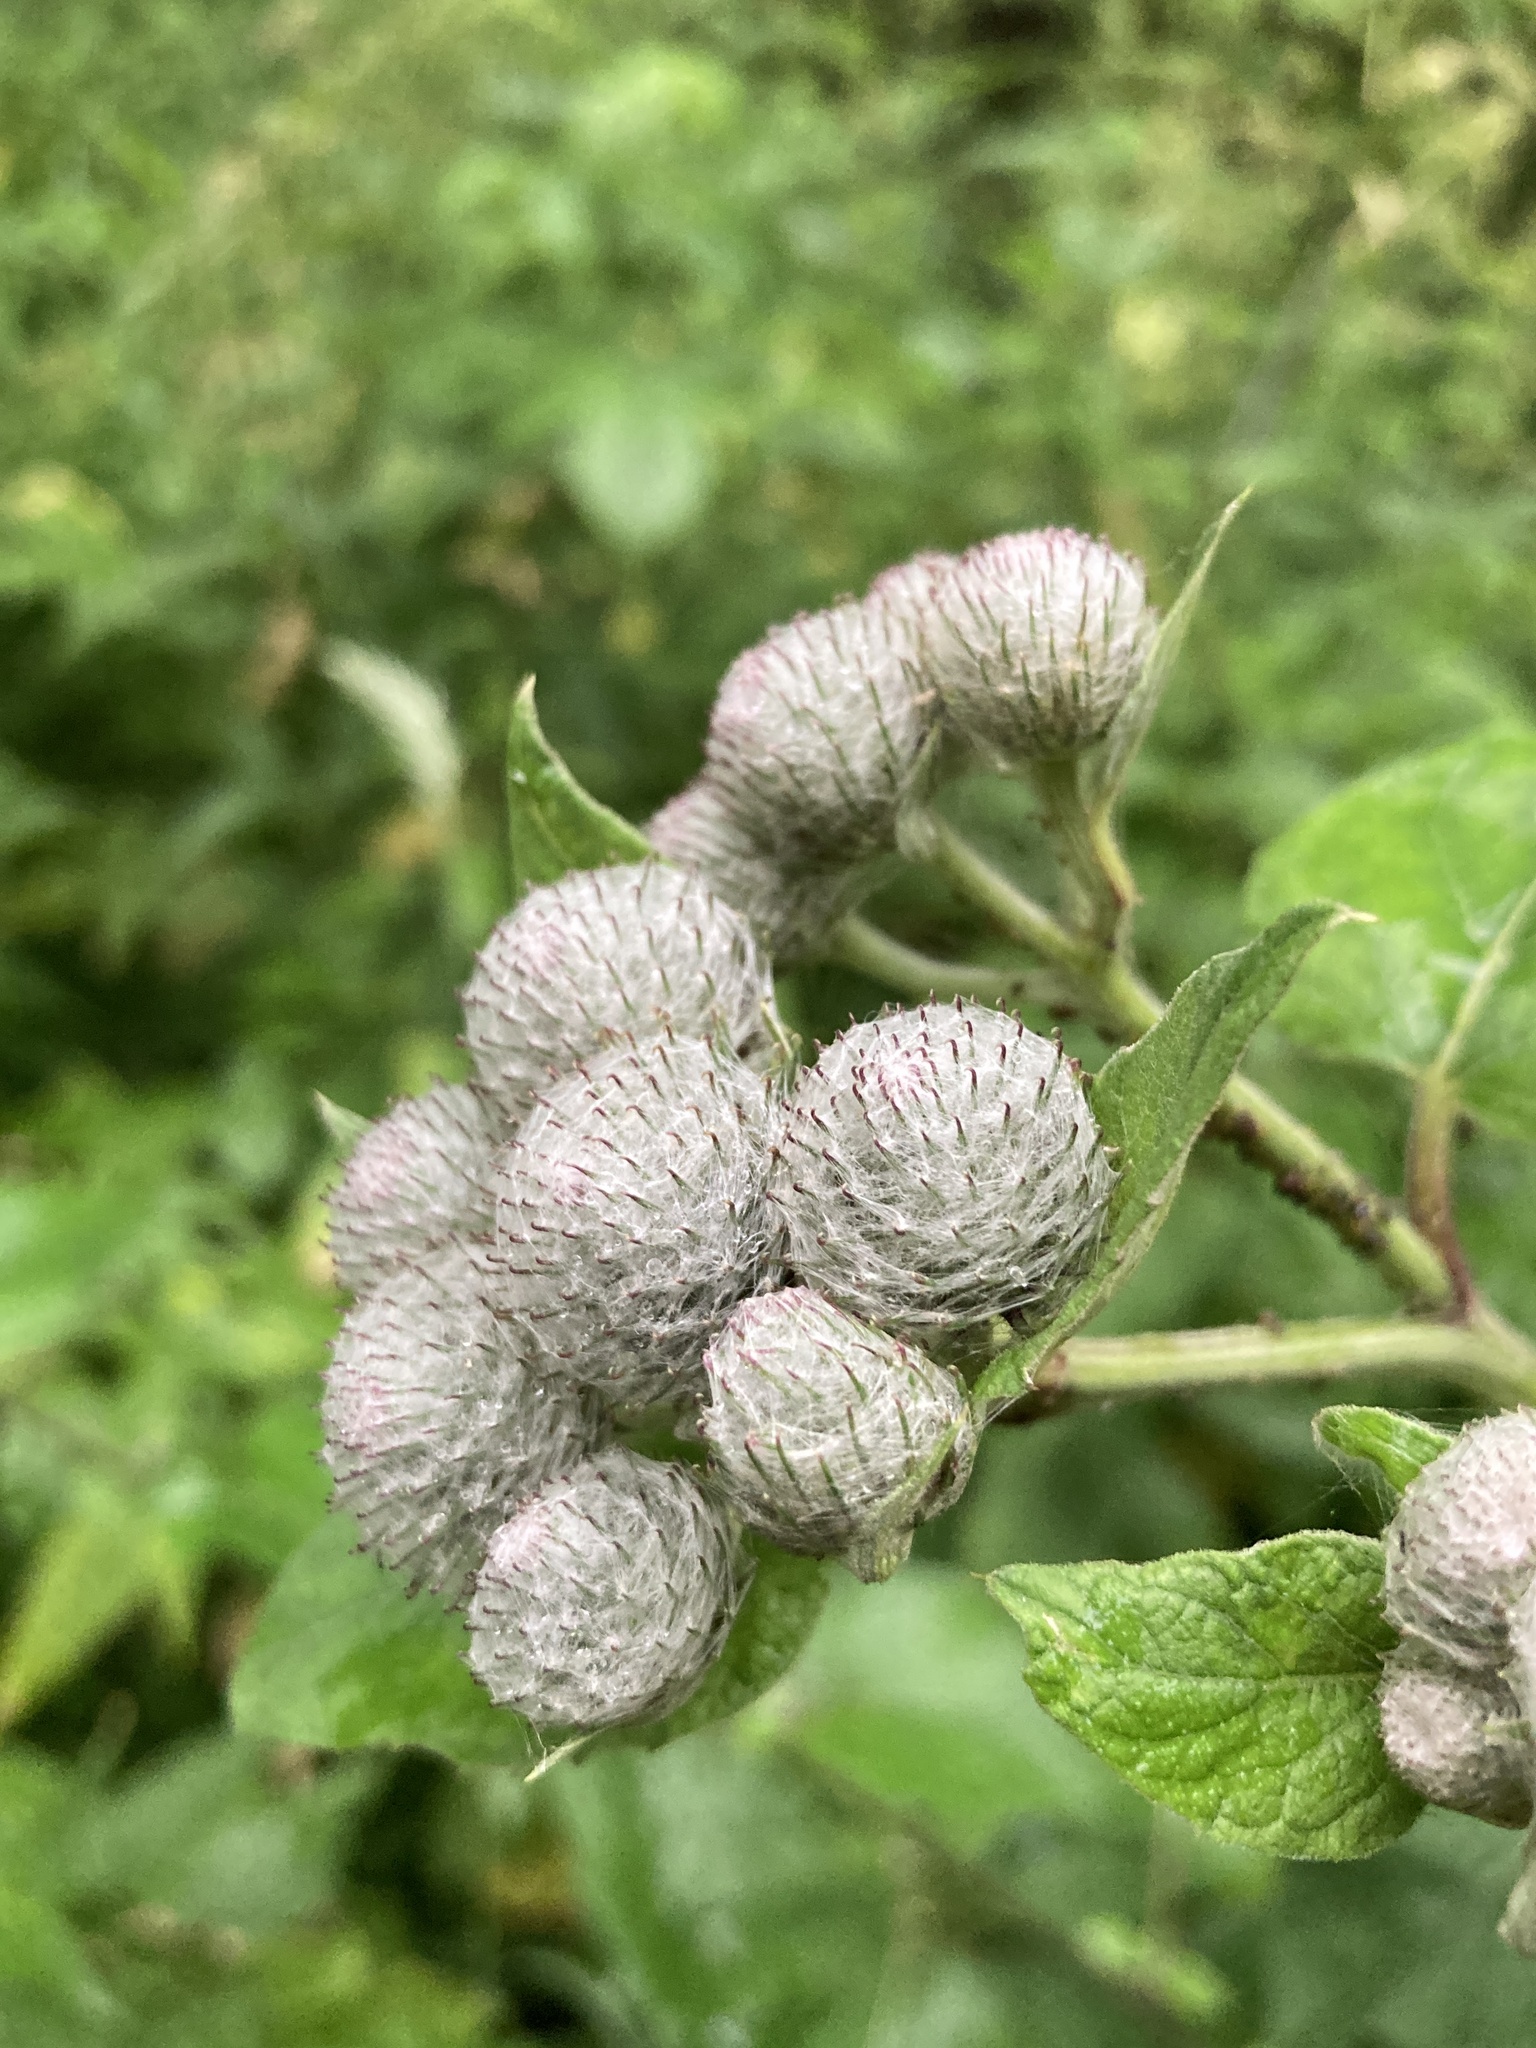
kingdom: Plantae
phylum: Tracheophyta
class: Magnoliopsida
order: Asterales
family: Asteraceae
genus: Arctium
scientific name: Arctium tomentosum
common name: Woolly burdock
